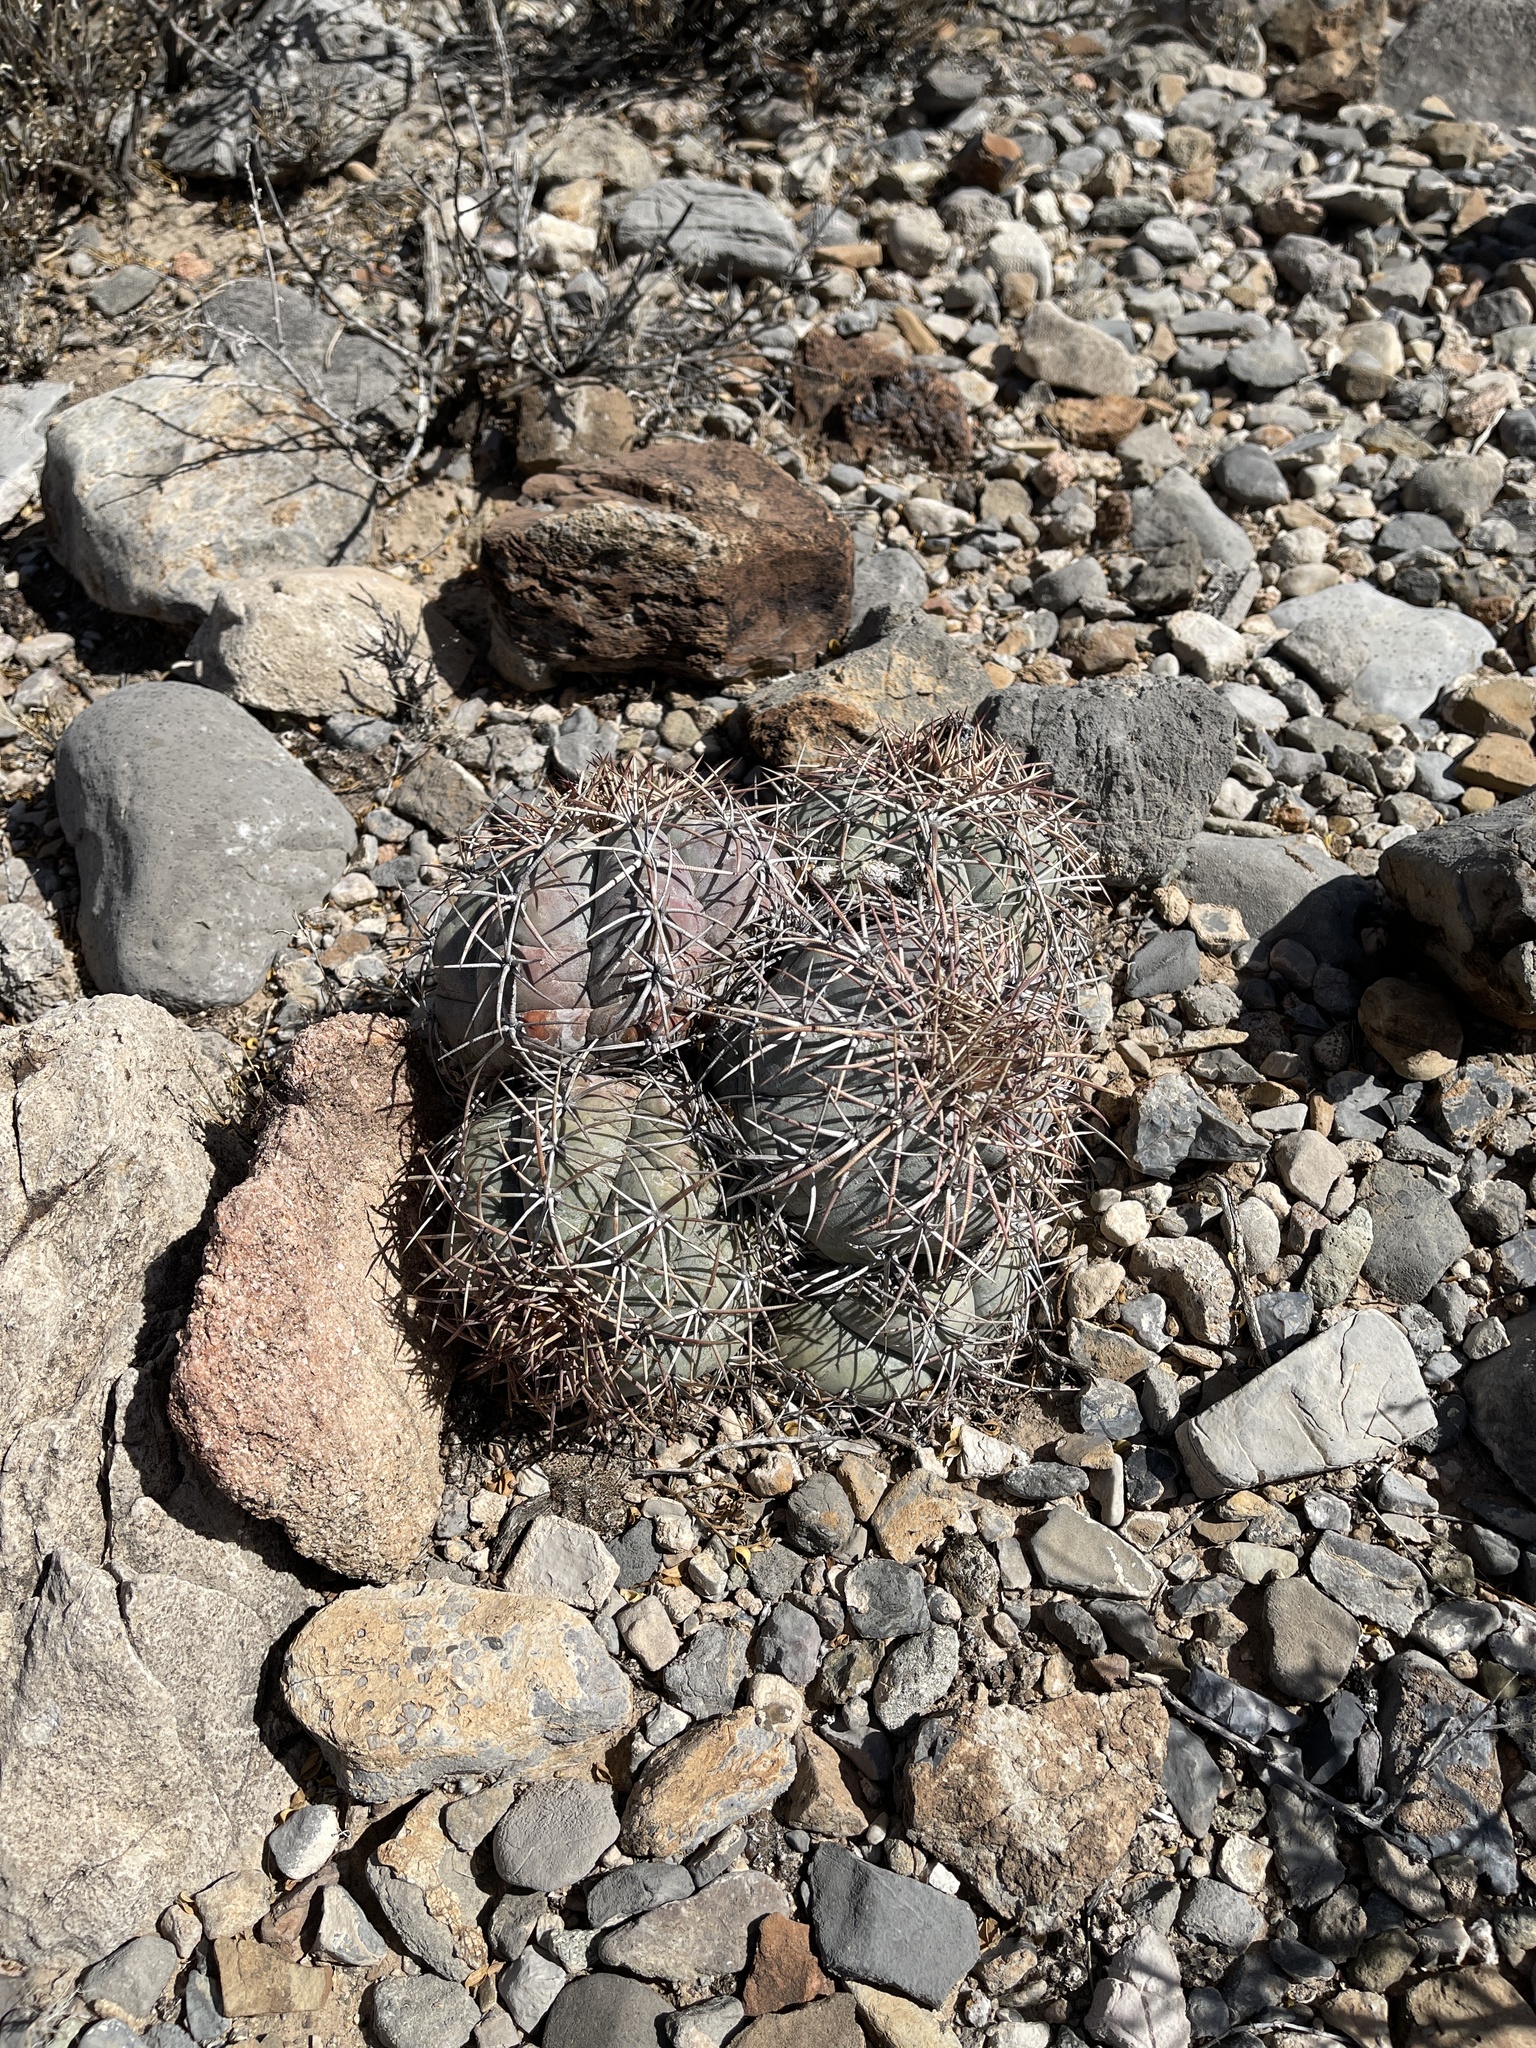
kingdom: Plantae
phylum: Tracheophyta
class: Magnoliopsida
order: Caryophyllales
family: Cactaceae
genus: Echinocactus
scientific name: Echinocactus horizonthalonius
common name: Devilshead
